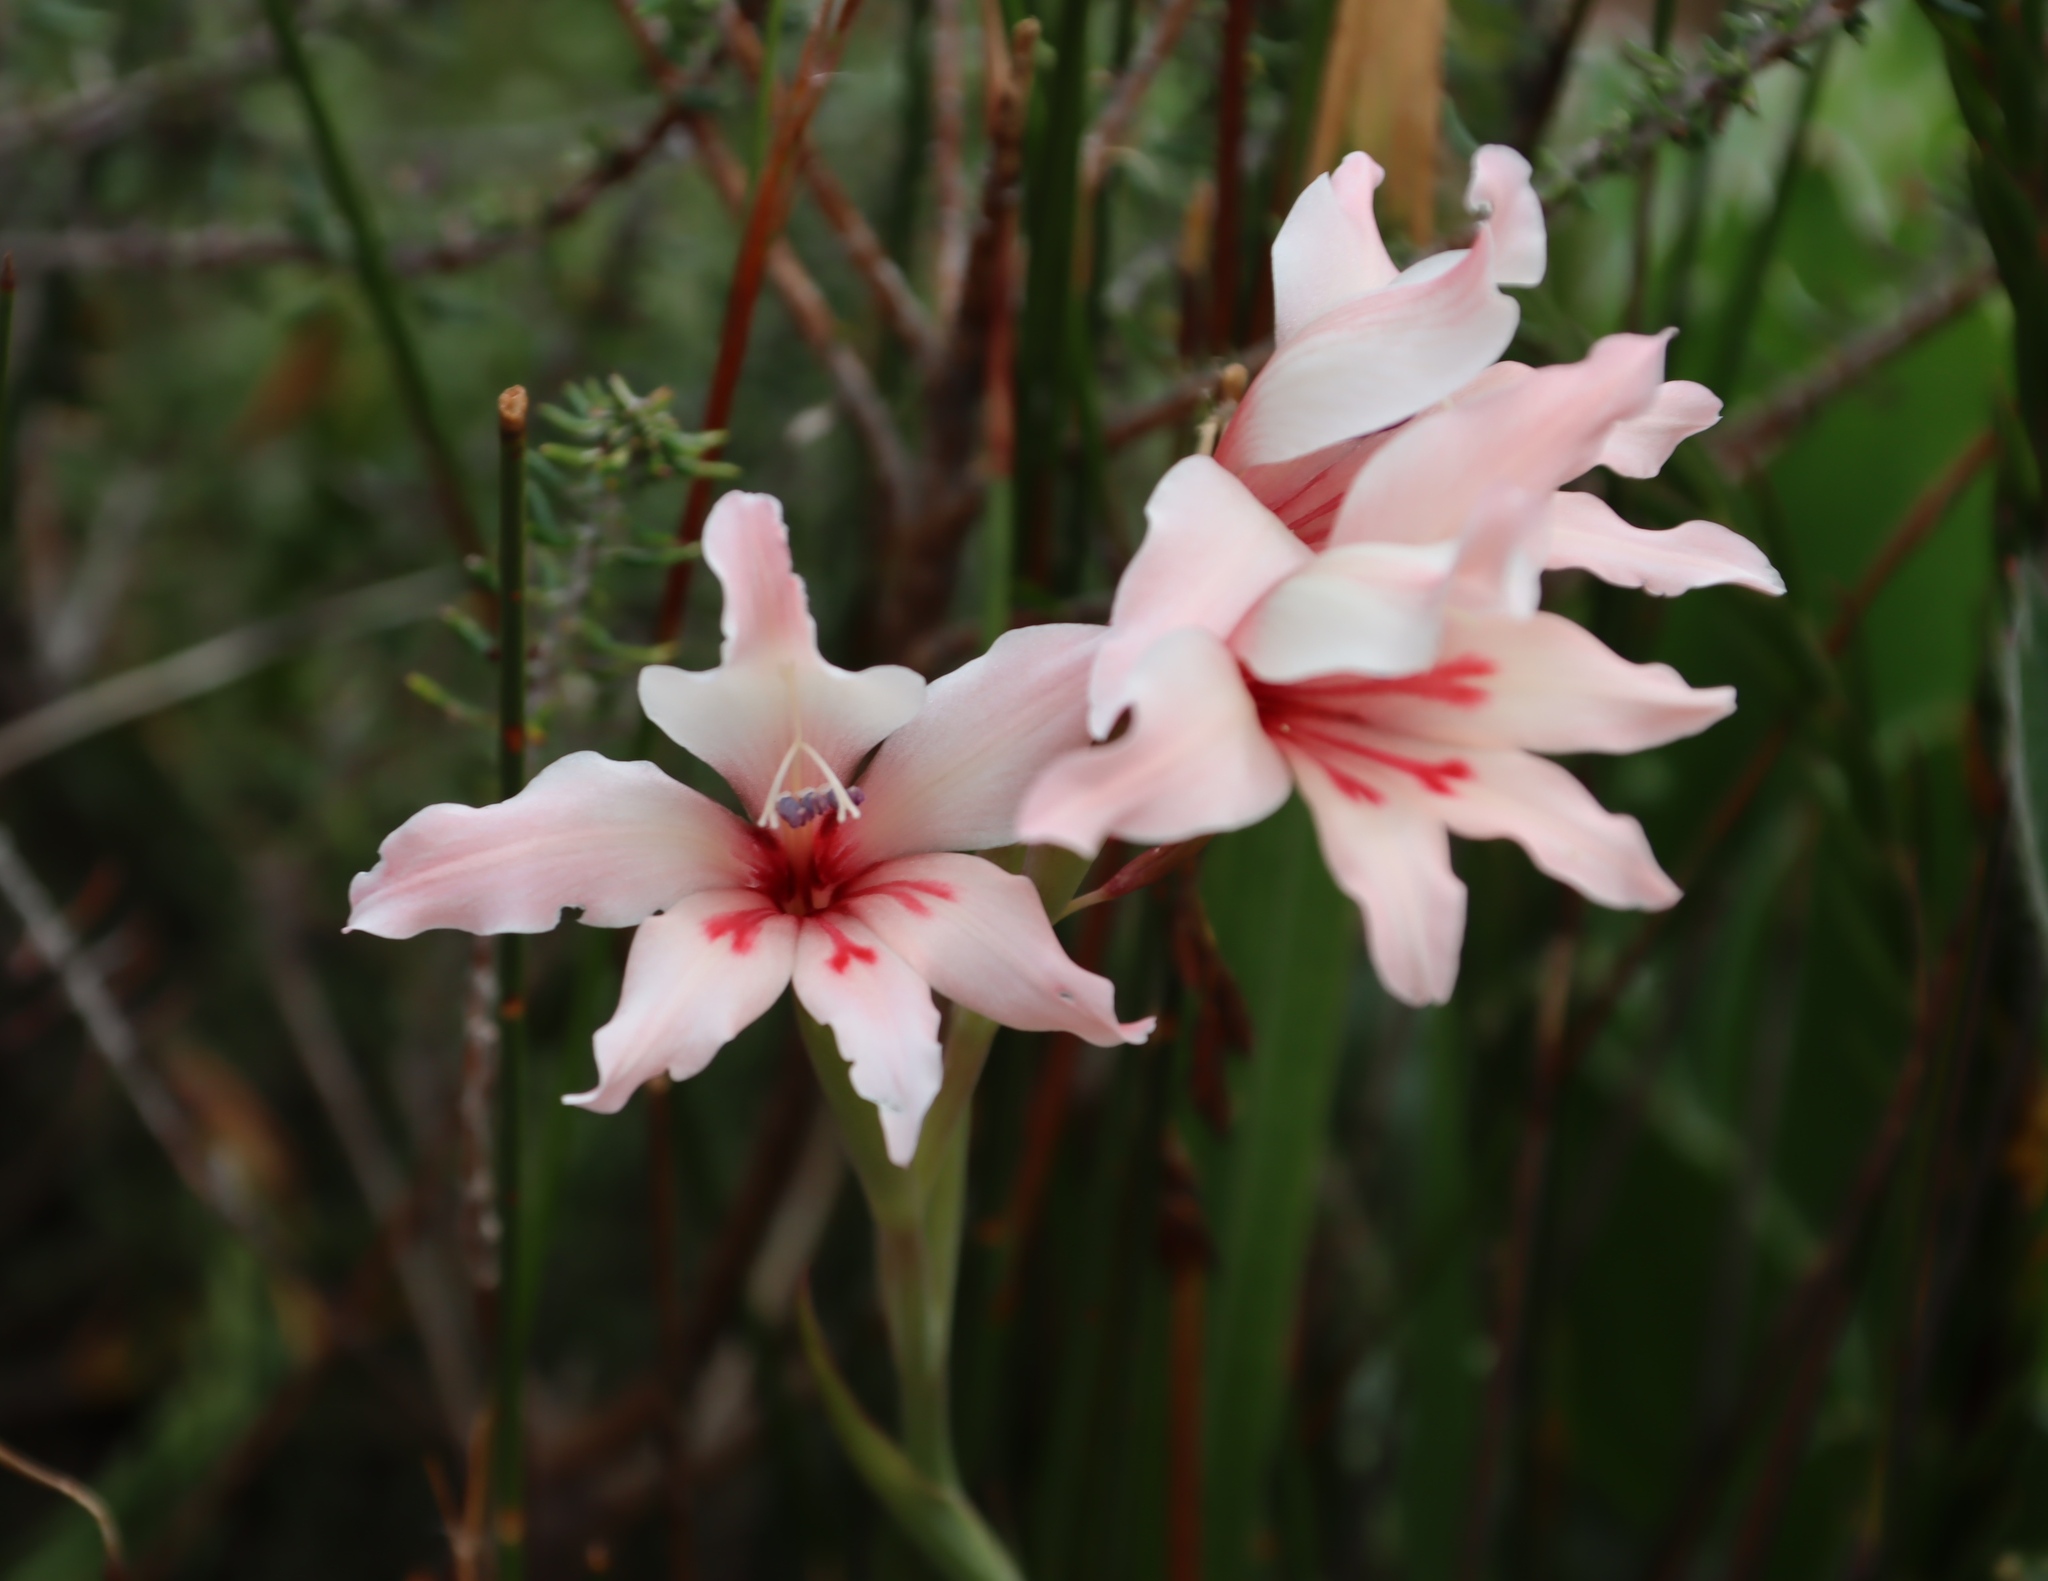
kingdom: Plantae
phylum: Tracheophyta
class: Liliopsida
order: Asparagales
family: Iridaceae
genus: Gladiolus
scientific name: Gladiolus carneus
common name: Painted-lady
